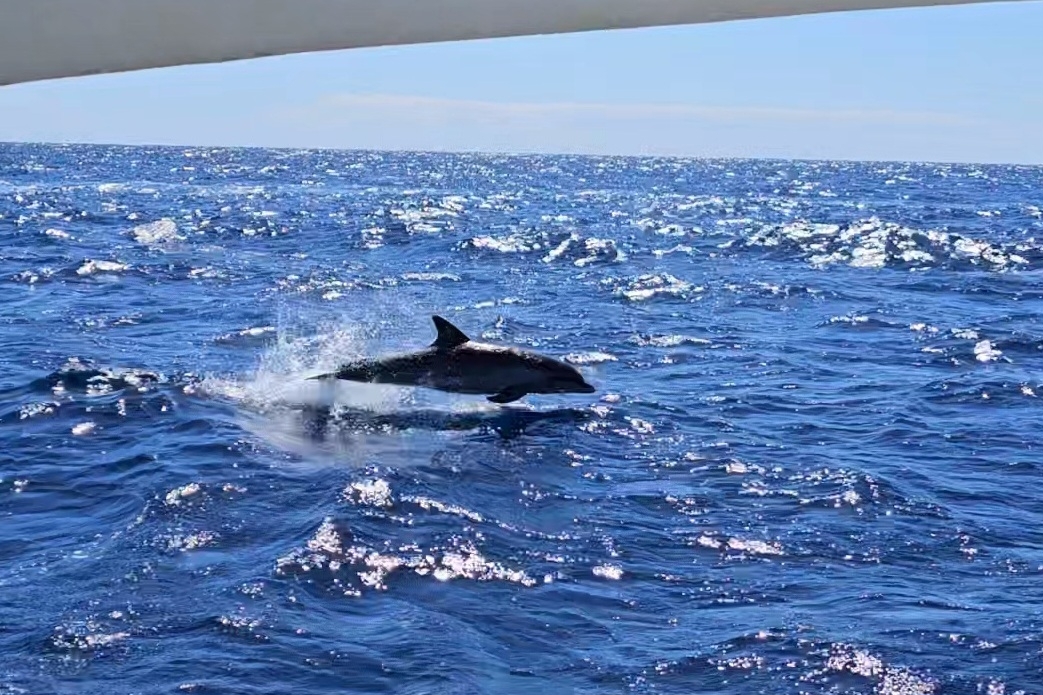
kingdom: Animalia
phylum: Chordata
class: Mammalia
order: Cetacea
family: Delphinidae
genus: Tursiops
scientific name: Tursiops truncatus
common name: Bottlenose dolphin
